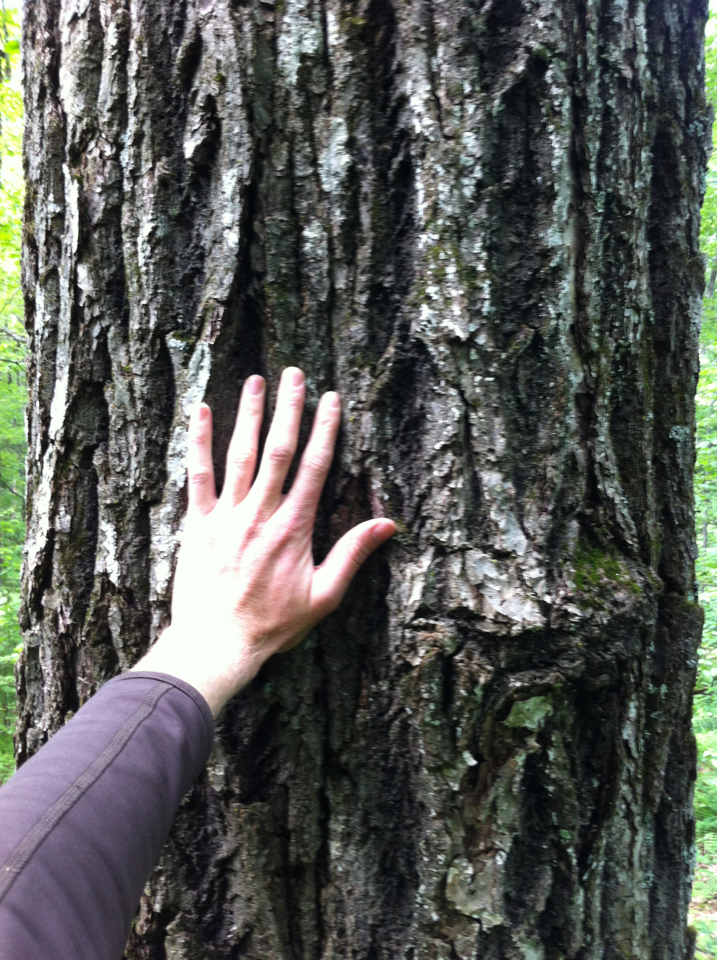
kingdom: Plantae
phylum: Tracheophyta
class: Magnoliopsida
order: Fagales
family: Juglandaceae
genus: Juglans
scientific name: Juglans cinerea
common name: Butternut
